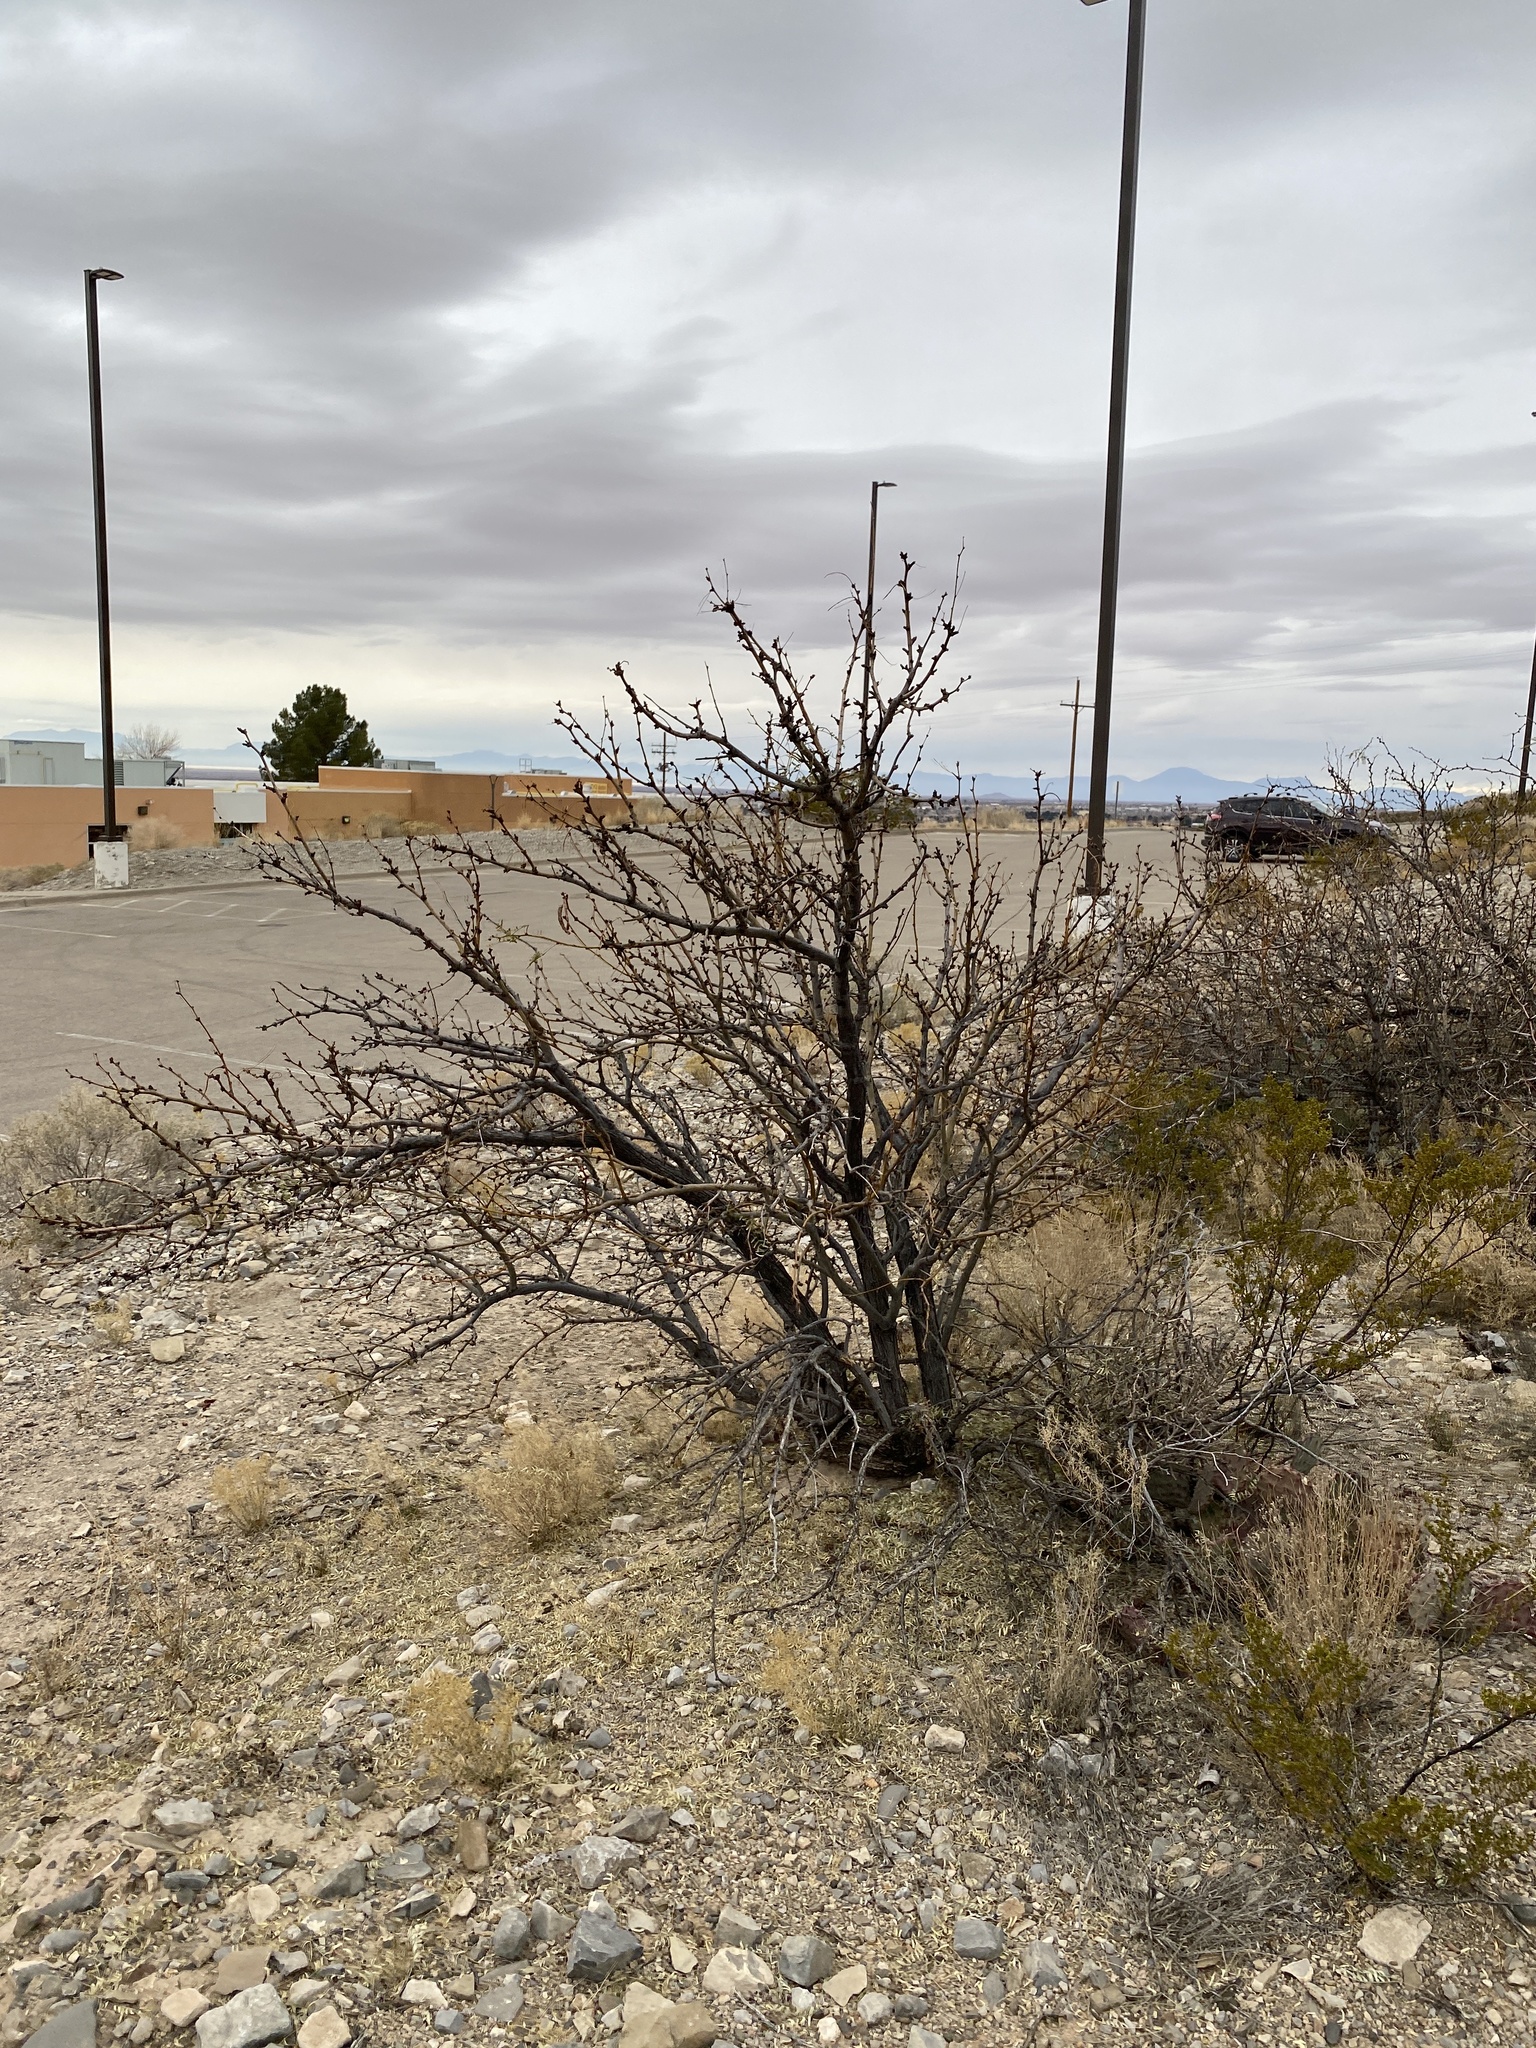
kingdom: Plantae
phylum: Tracheophyta
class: Magnoliopsida
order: Fabales
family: Fabaceae
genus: Prosopis
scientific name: Prosopis glandulosa
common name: Honey mesquite
